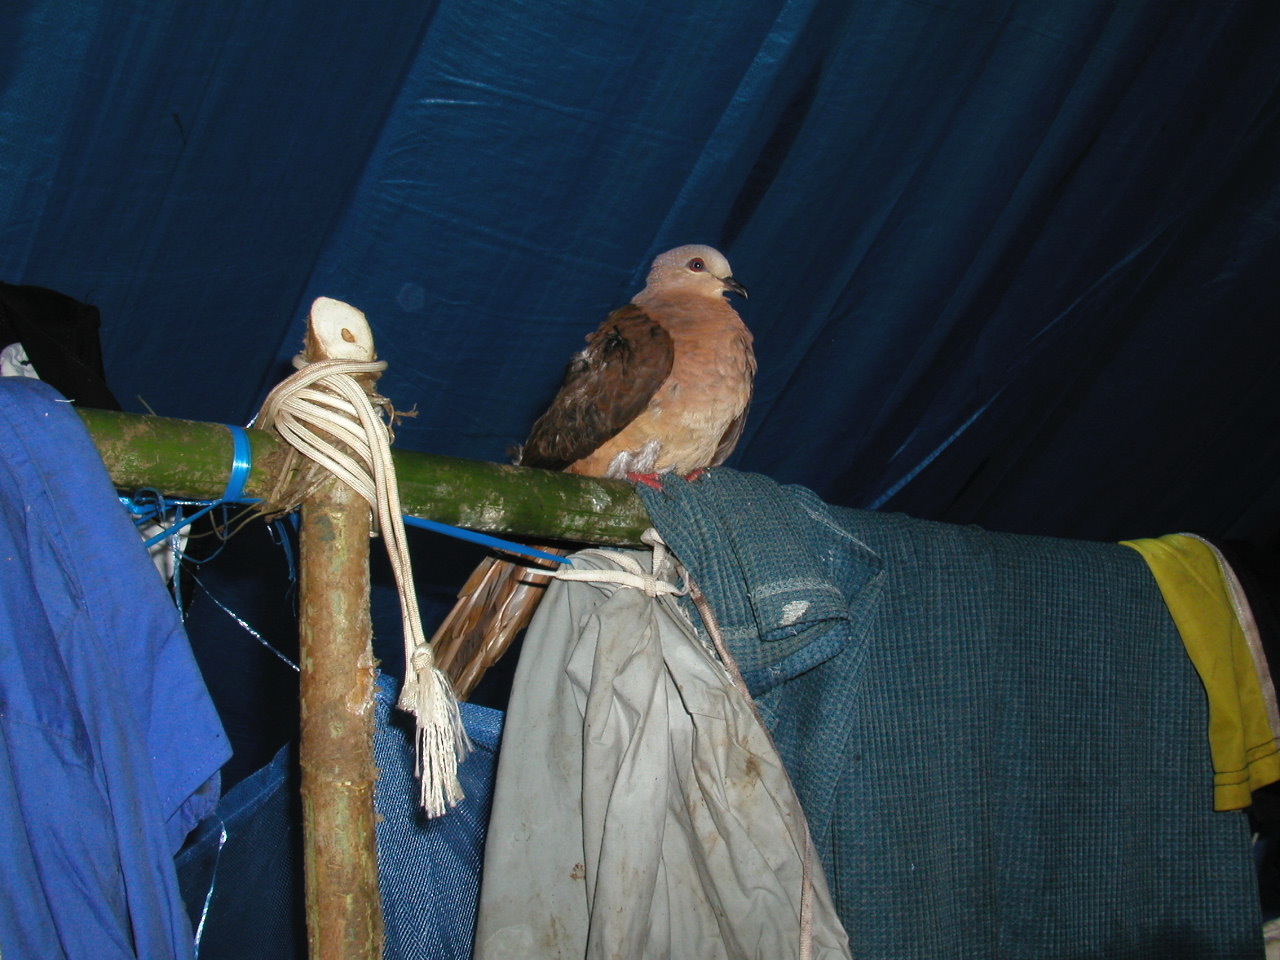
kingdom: Animalia
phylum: Chordata
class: Aves
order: Columbiformes
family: Columbidae
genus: Macropygia
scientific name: Macropygia amboinensis
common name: Amboyna cuckoo-dove
